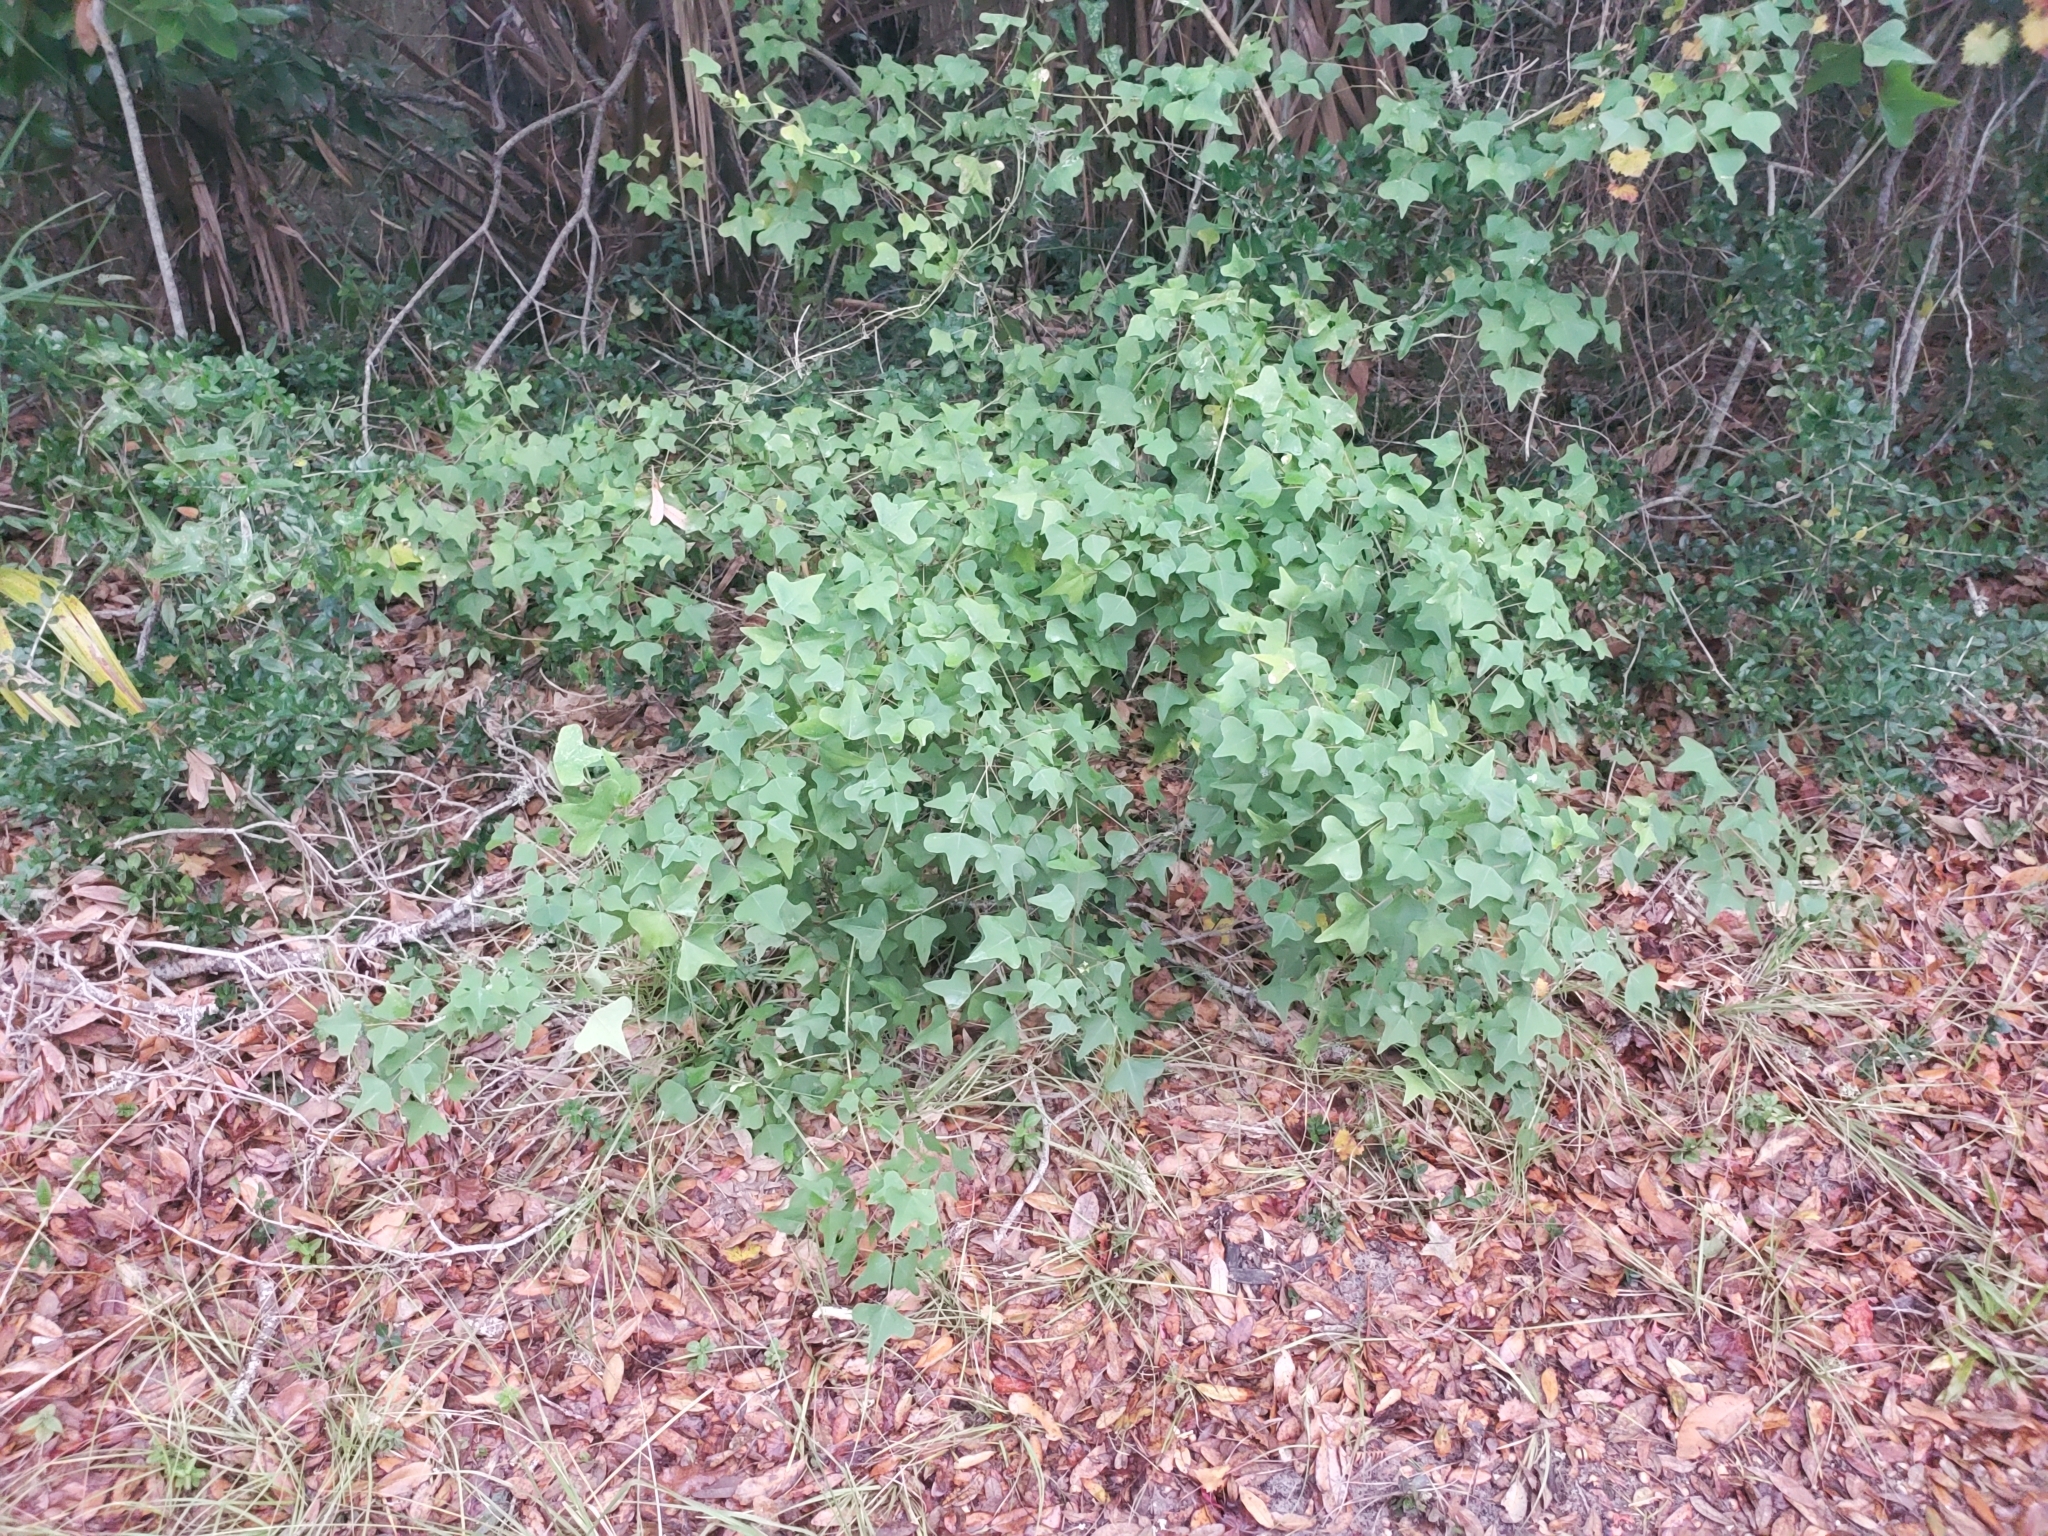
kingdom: Plantae
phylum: Tracheophyta
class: Magnoliopsida
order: Fabales
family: Fabaceae
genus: Erythrina
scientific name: Erythrina herbacea
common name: Coral-bean
